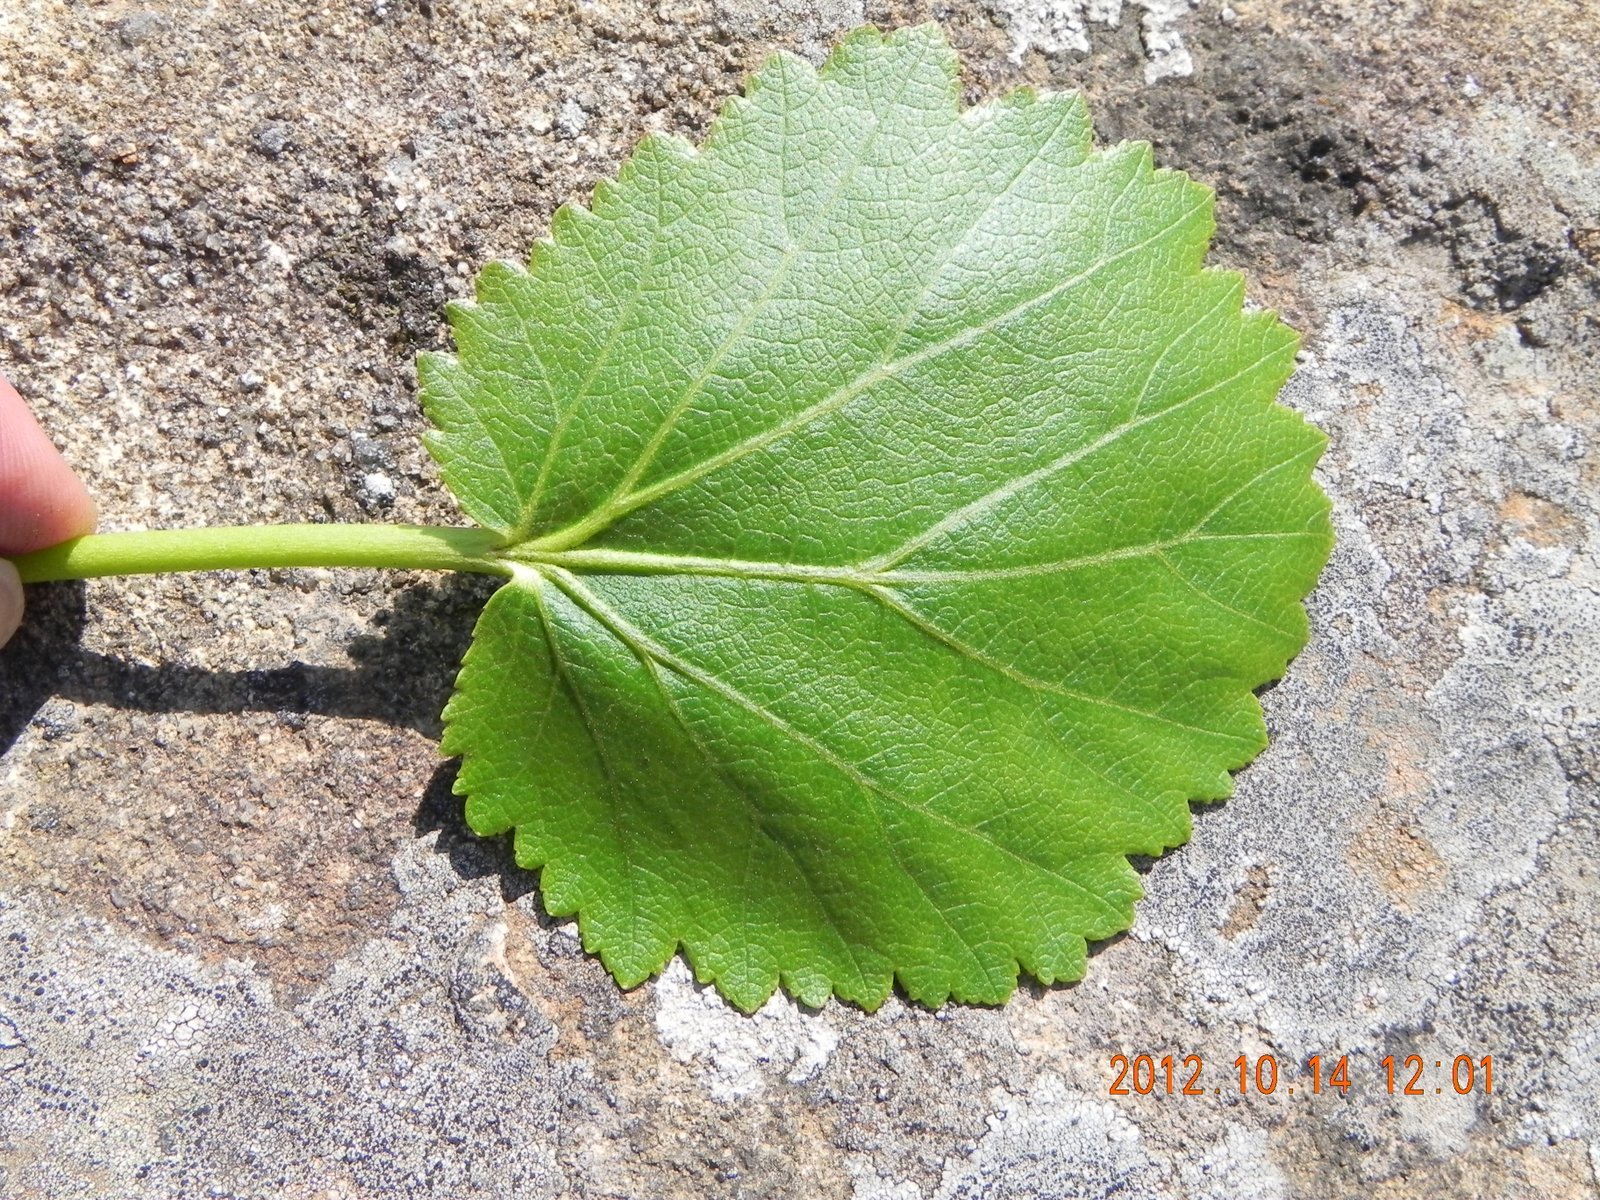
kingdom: Plantae
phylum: Tracheophyta
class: Magnoliopsida
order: Geraniales
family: Francoaceae
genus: Greyia
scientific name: Greyia sutherlandii
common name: Glossy bottlebrush
